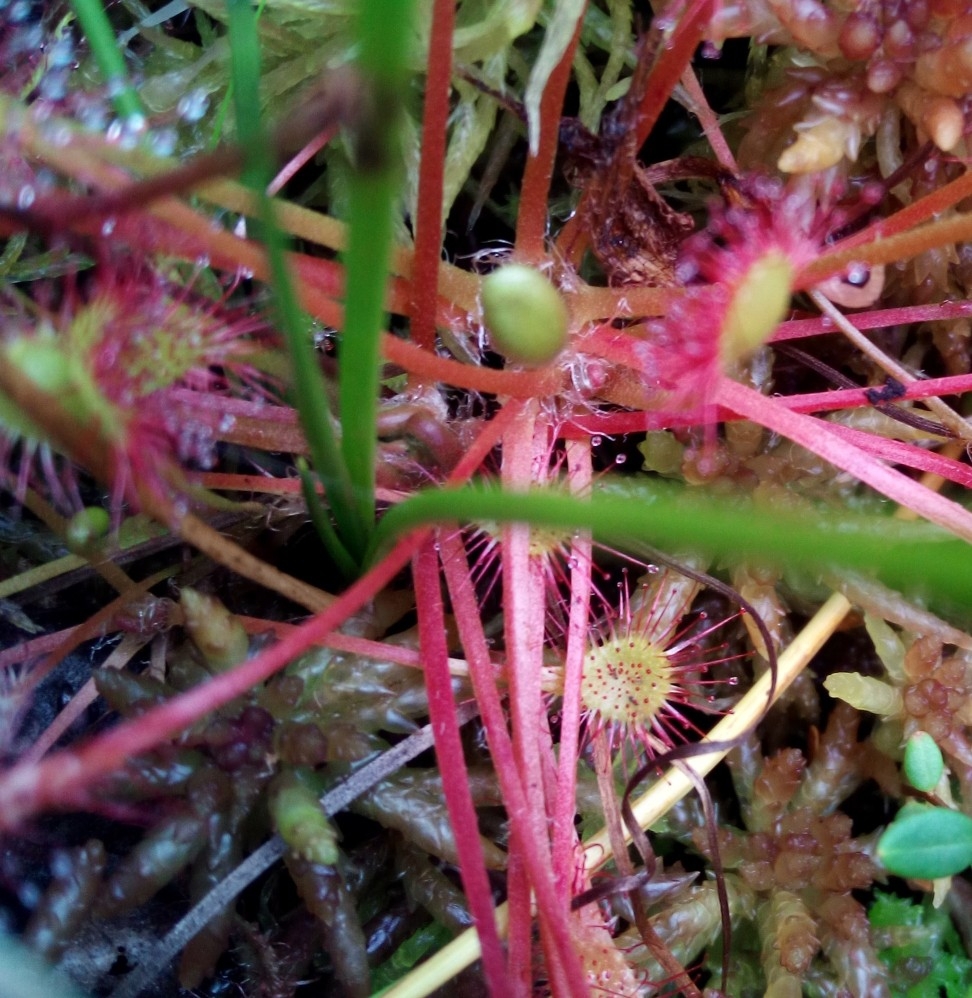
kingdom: Plantae
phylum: Tracheophyta
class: Magnoliopsida
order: Caryophyllales
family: Droseraceae
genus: Drosera
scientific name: Drosera obovata
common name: Ivan's paddle
